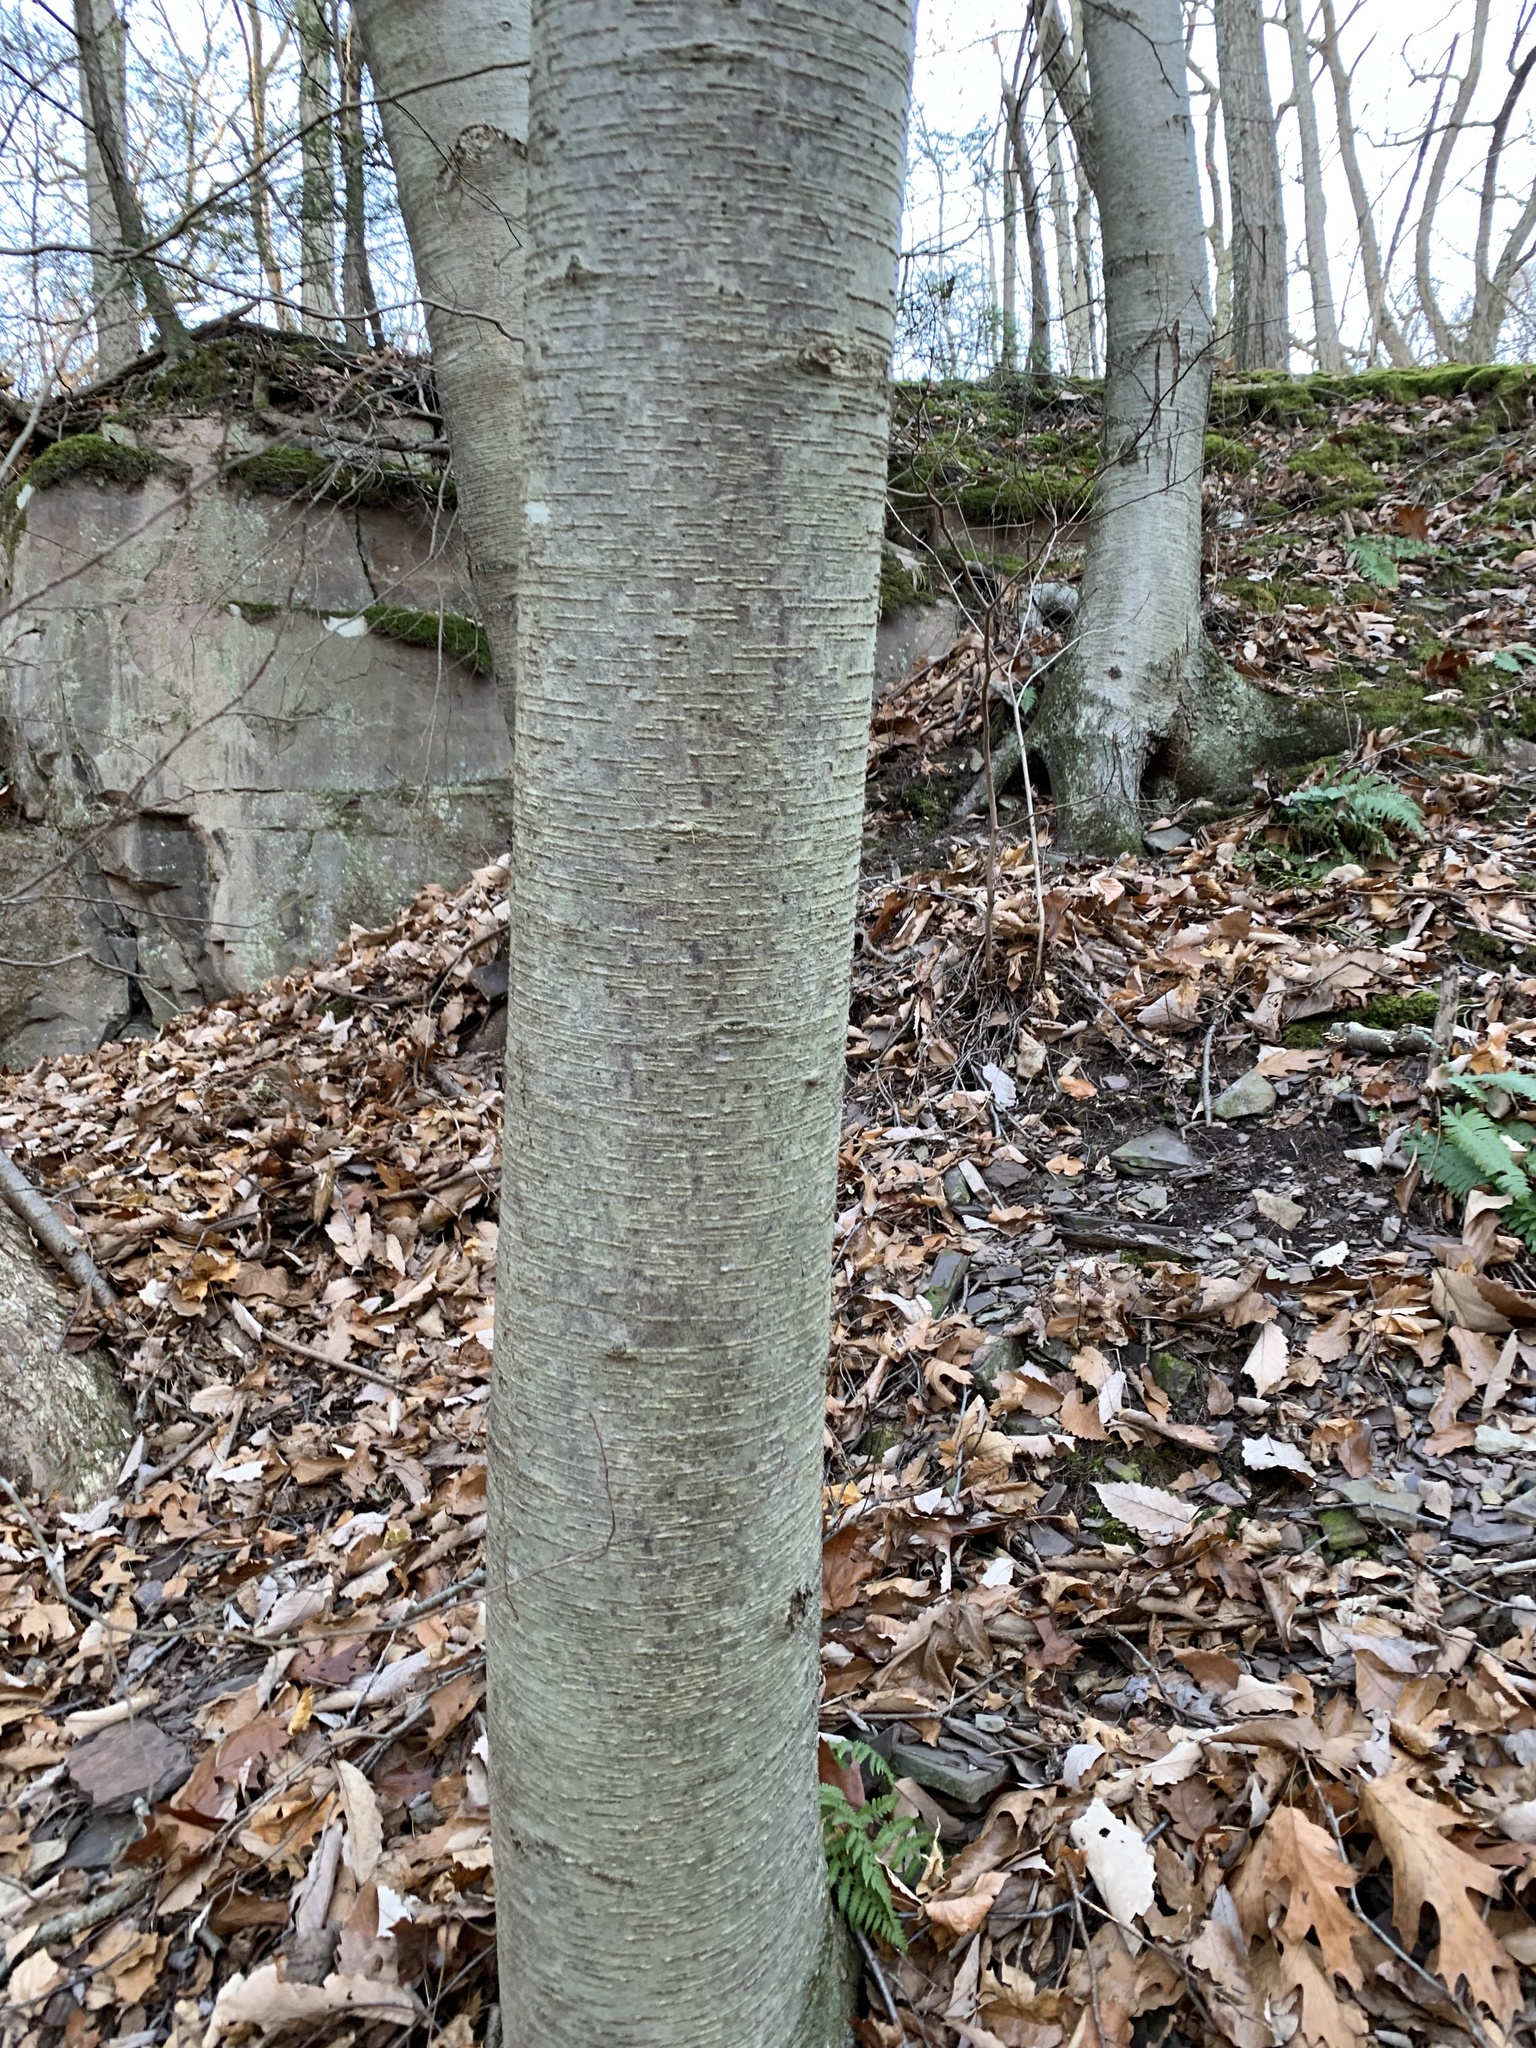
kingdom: Plantae
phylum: Tracheophyta
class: Magnoliopsida
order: Fagales
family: Betulaceae
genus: Betula
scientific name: Betula lenta
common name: Black birch
